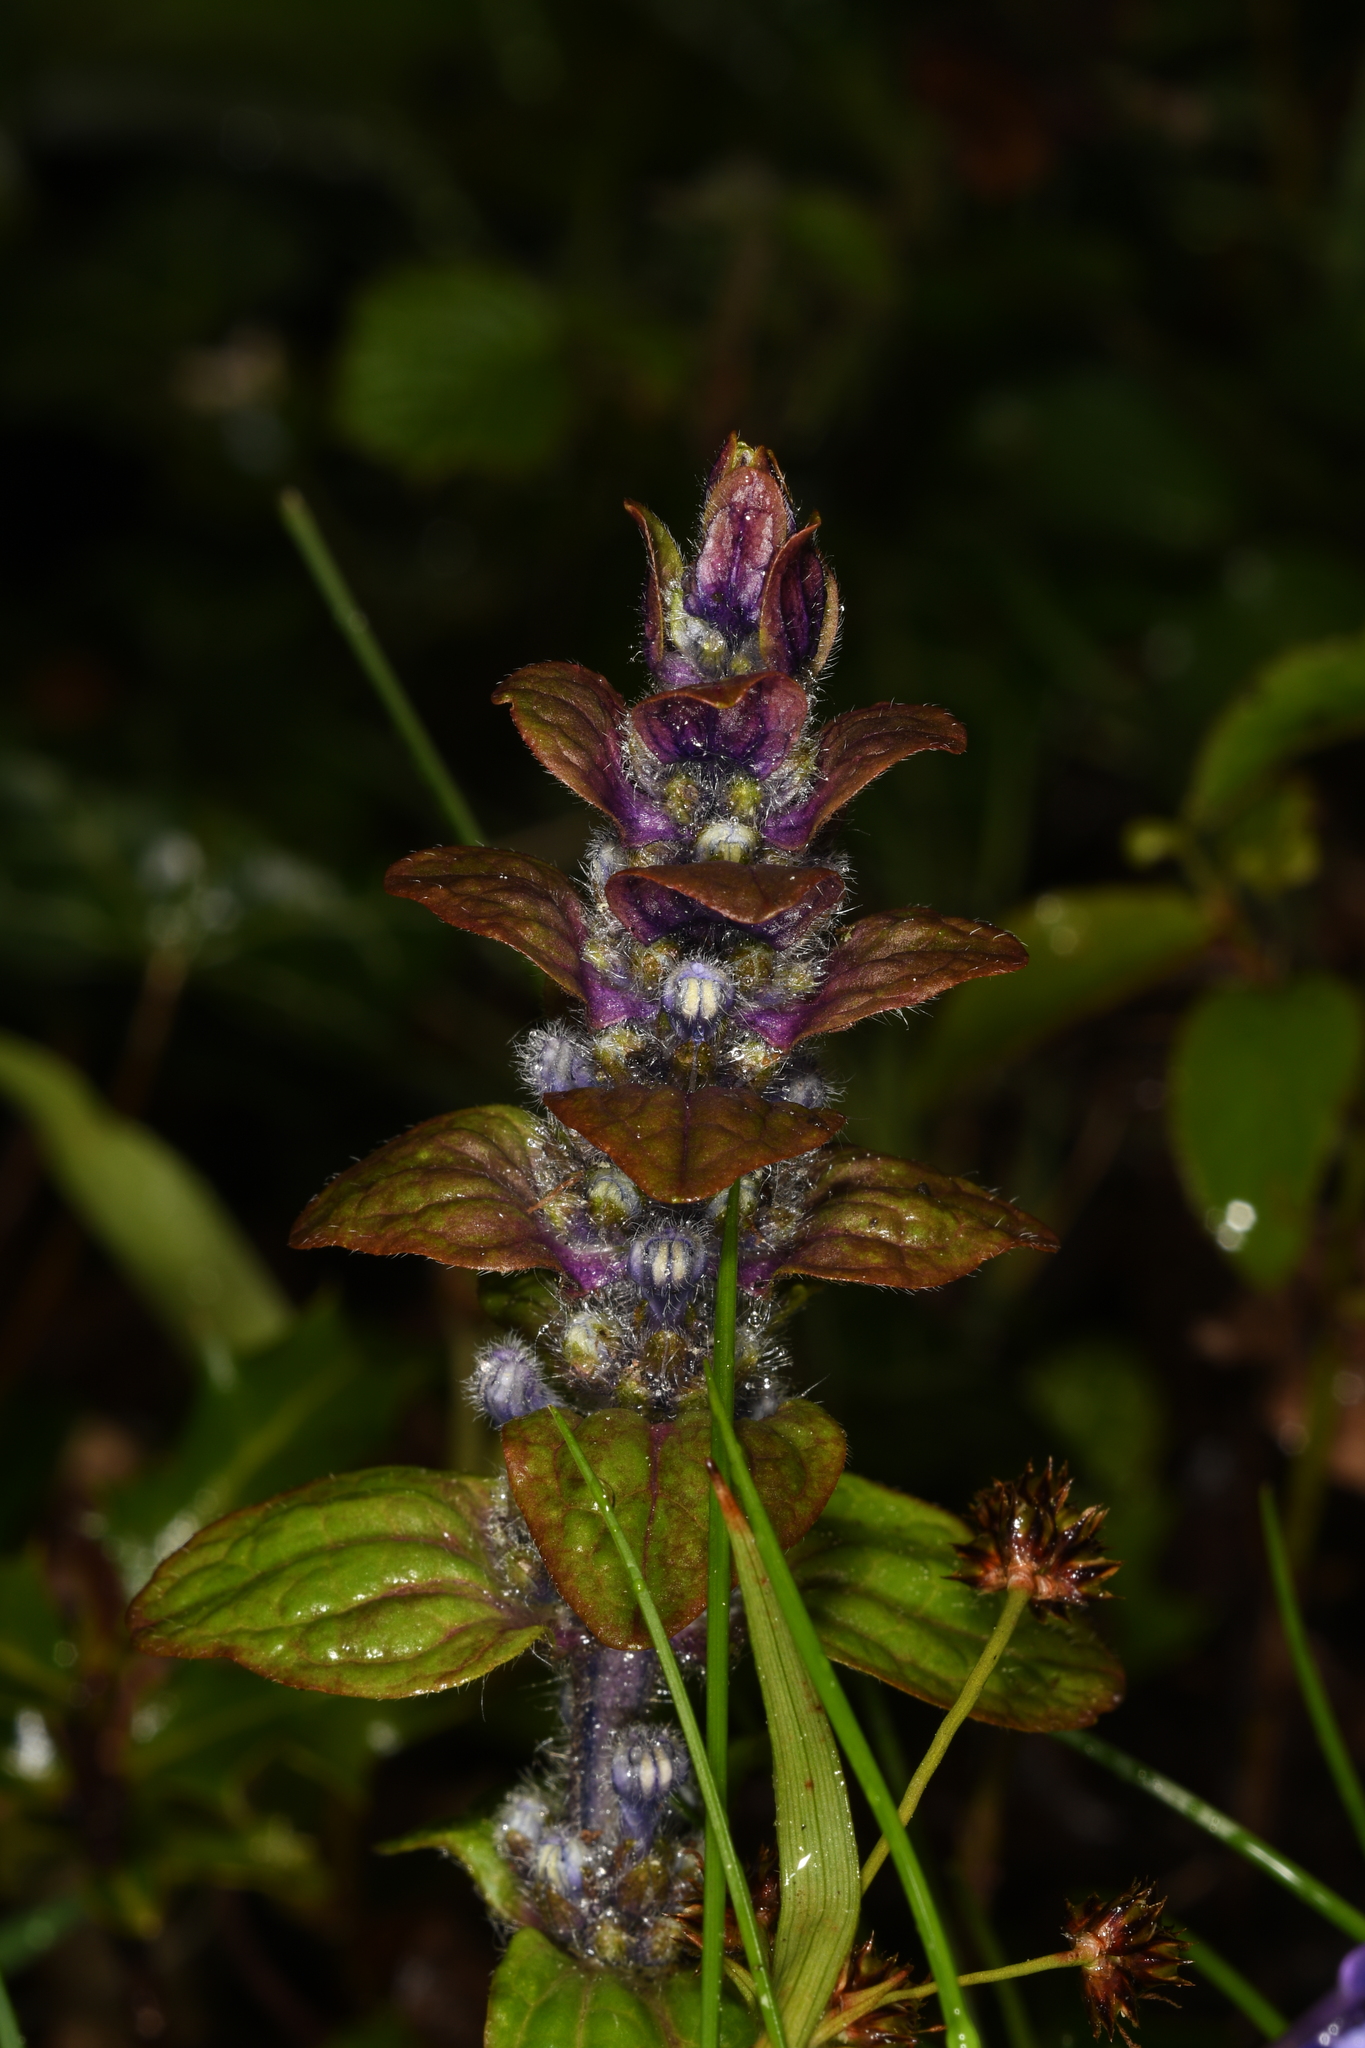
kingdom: Plantae
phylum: Tracheophyta
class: Magnoliopsida
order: Lamiales
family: Lamiaceae
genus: Ajuga
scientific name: Ajuga reptans
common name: Bugle
